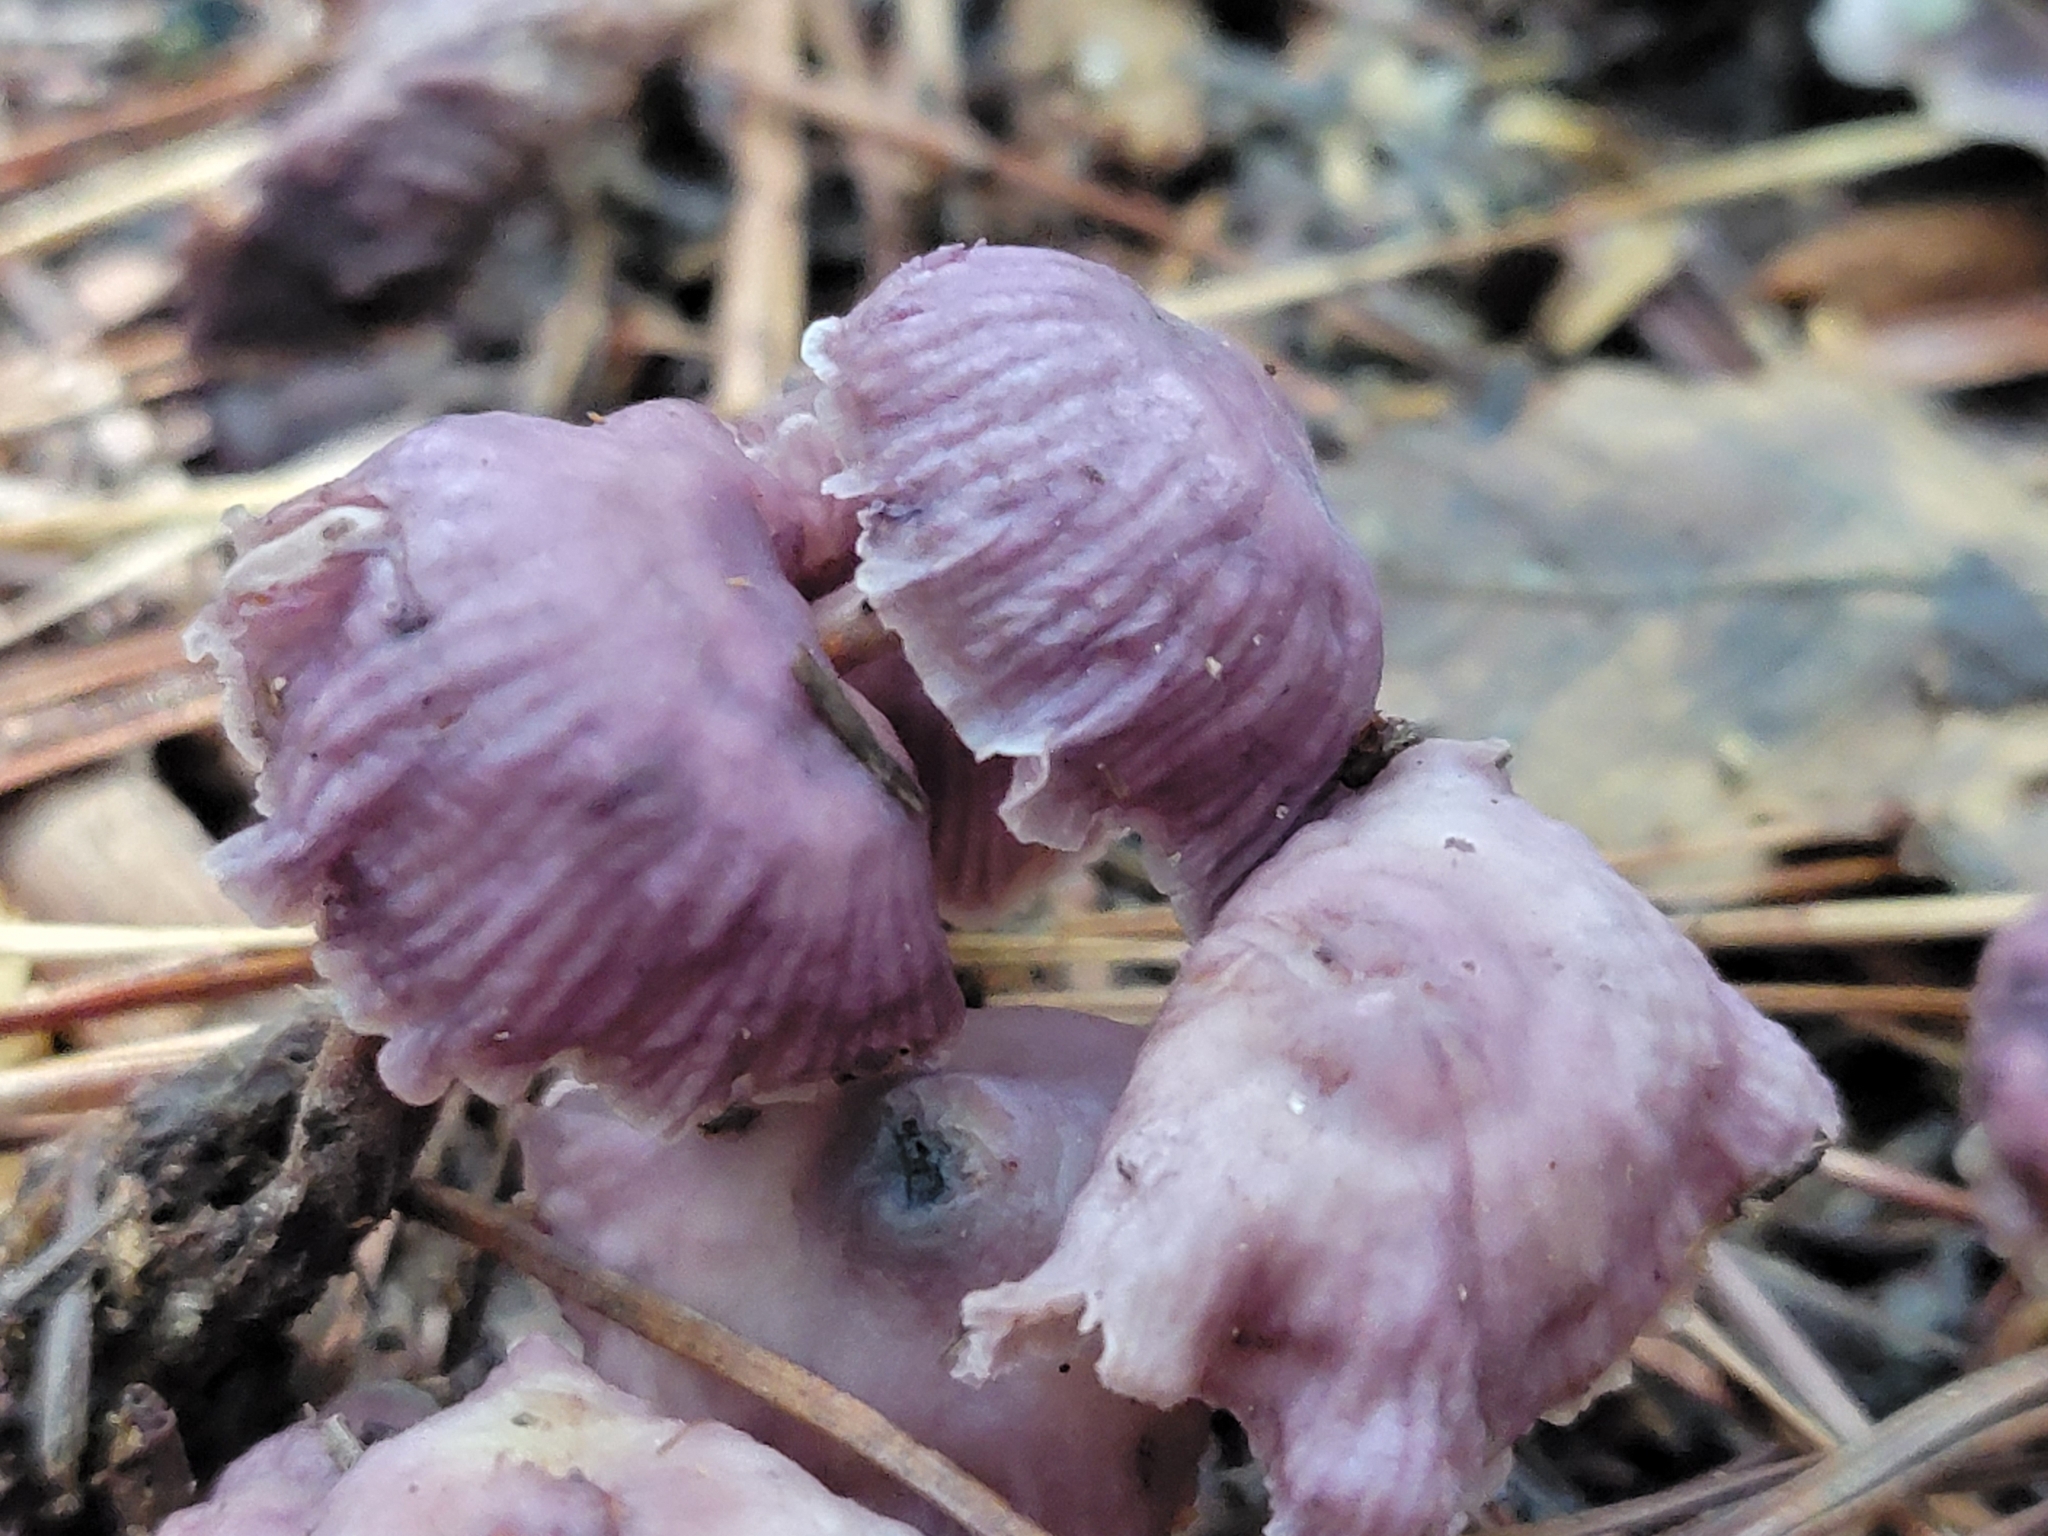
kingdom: Fungi
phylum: Basidiomycota
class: Agaricomycetes
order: Agaricales
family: Omphalotaceae
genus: Gymnopus
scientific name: Gymnopus iocephalus
